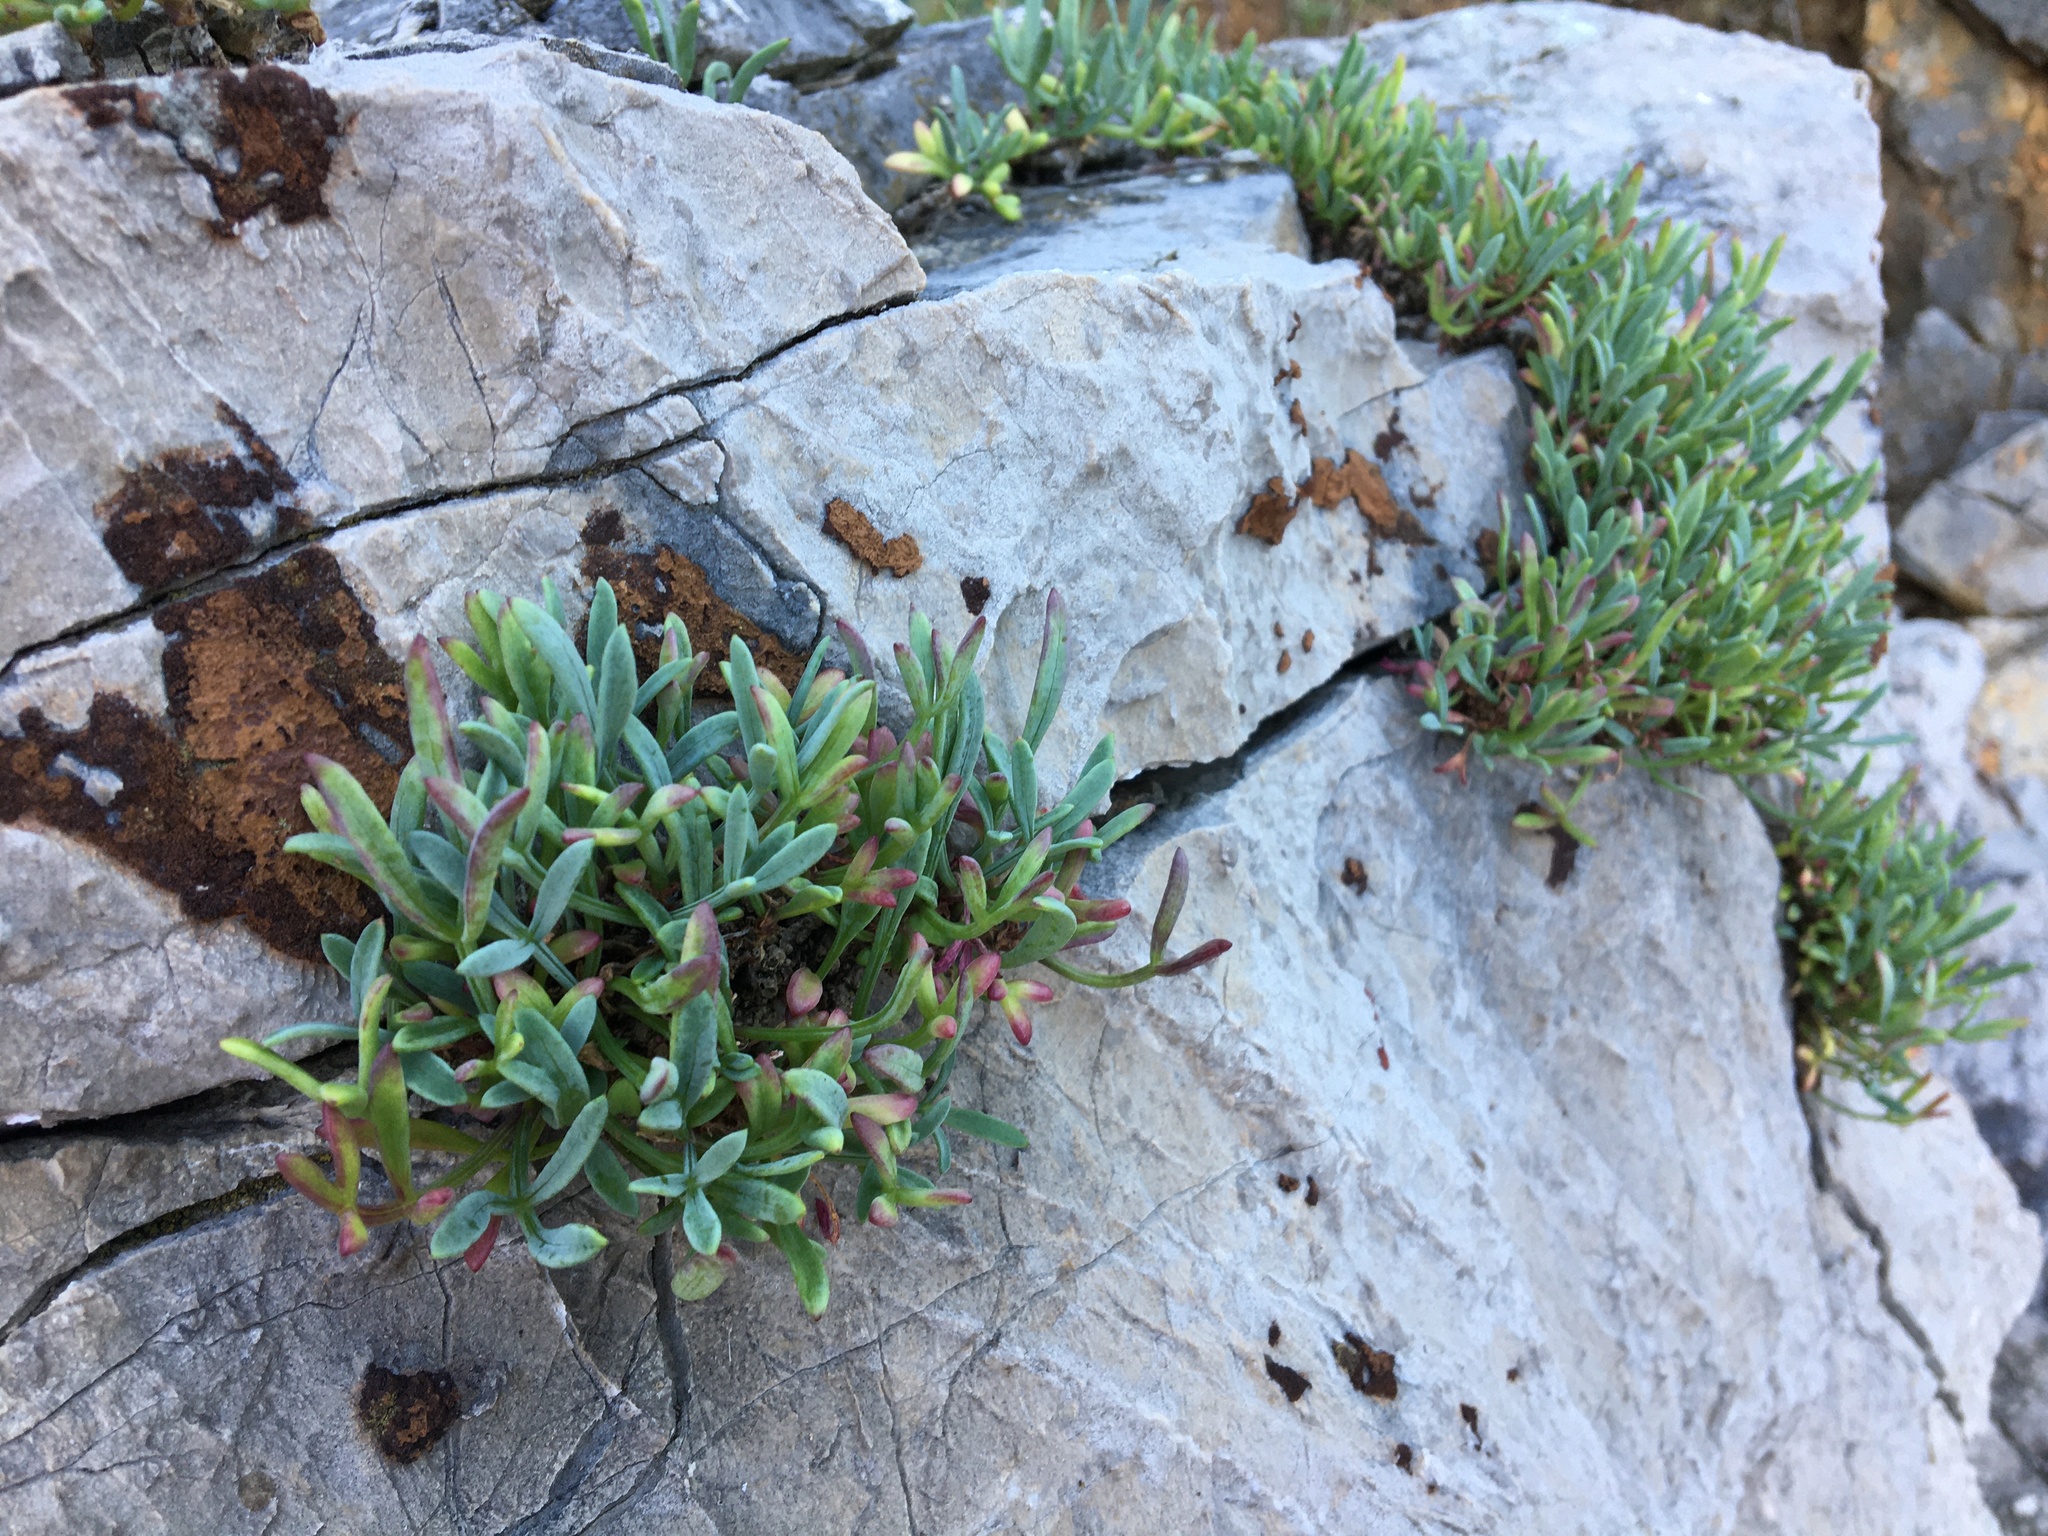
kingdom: Plantae
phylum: Tracheophyta
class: Magnoliopsida
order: Apiales
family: Apiaceae
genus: Crithmum
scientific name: Crithmum maritimum
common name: Rock samphire
